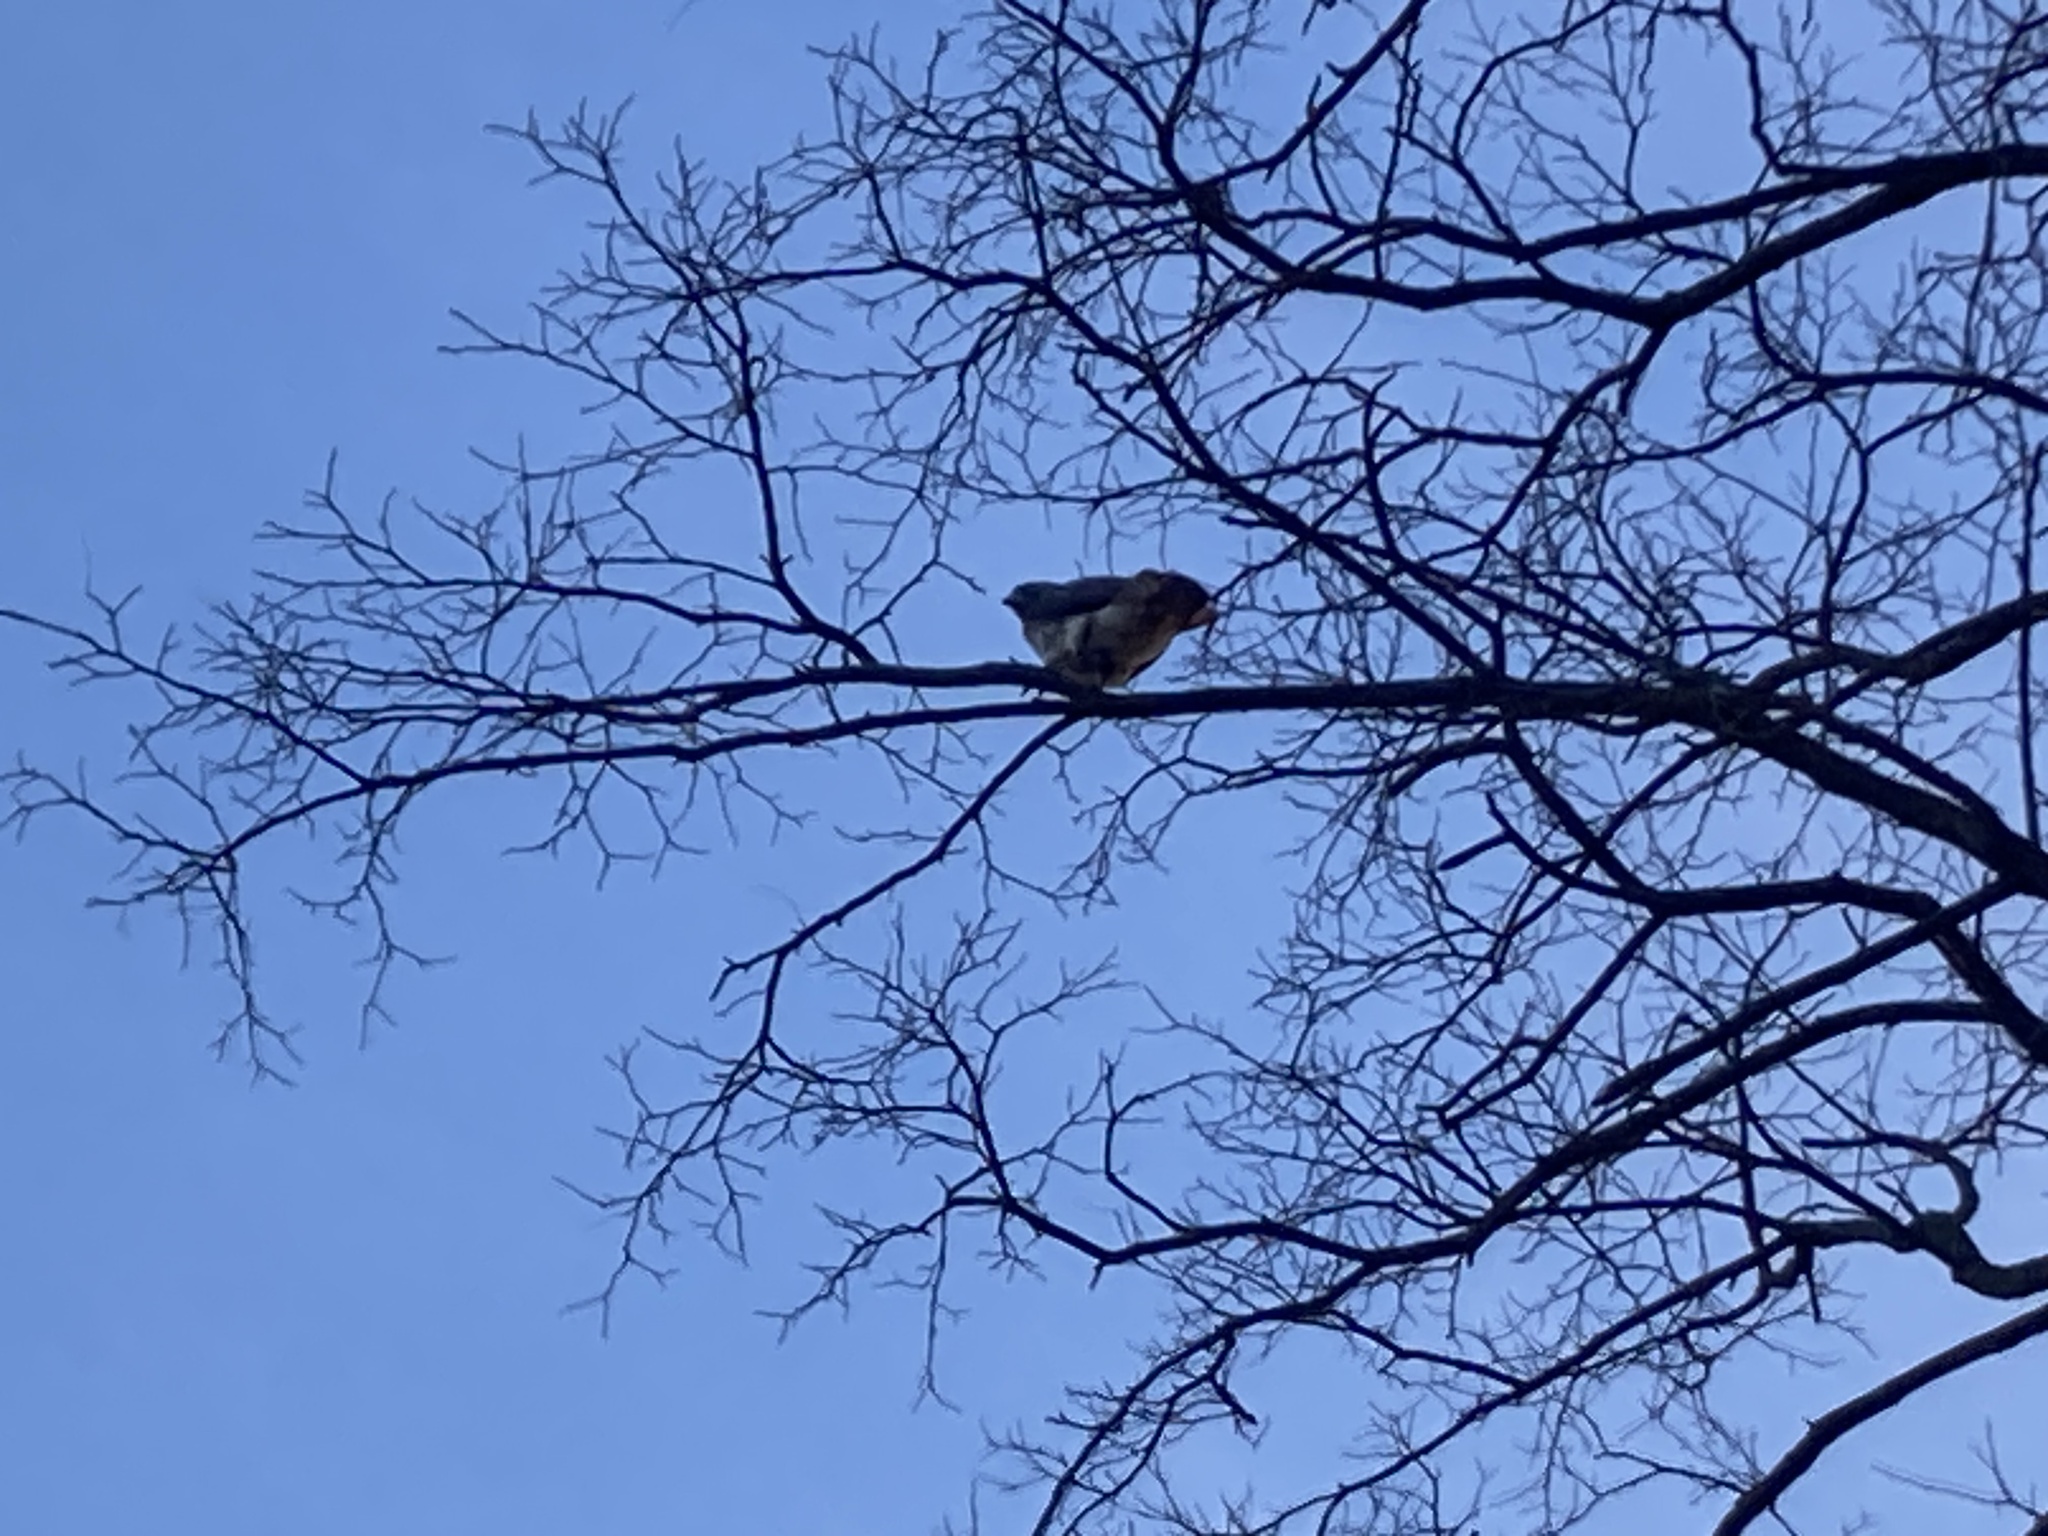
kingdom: Animalia
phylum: Chordata
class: Aves
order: Accipitriformes
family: Accipitridae
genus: Buteo
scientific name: Buteo jamaicensis
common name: Red-tailed hawk
